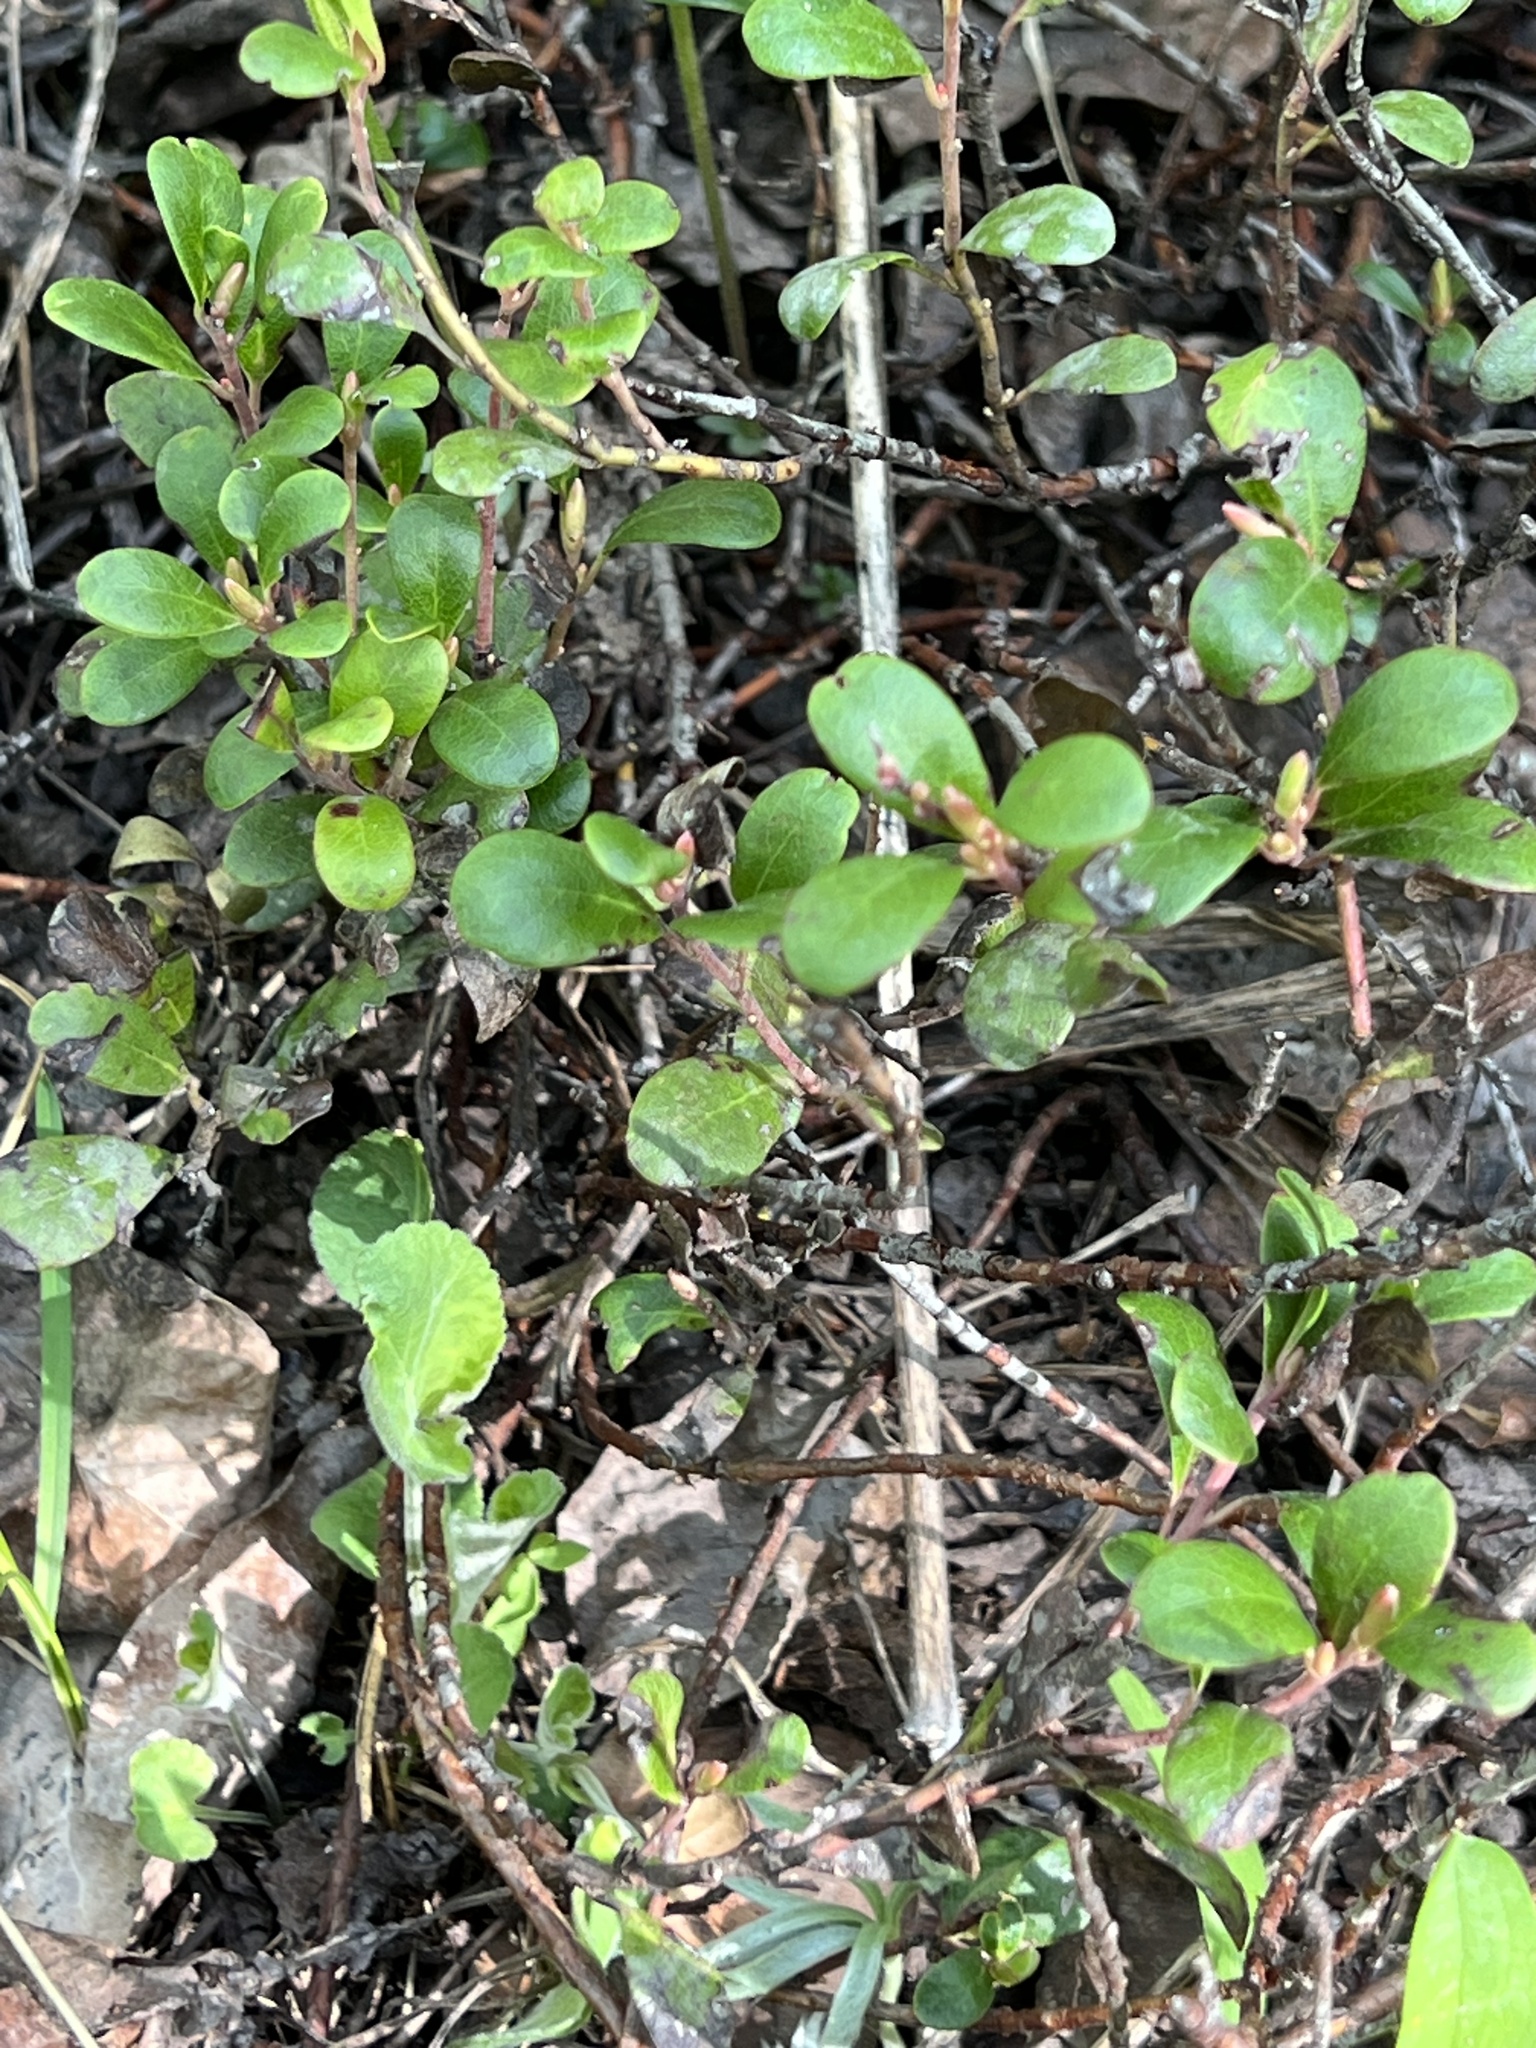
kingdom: Plantae
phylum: Tracheophyta
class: Magnoliopsida
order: Ericales
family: Ericaceae
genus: Arctostaphylos
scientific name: Arctostaphylos uva-ursi
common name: Bearberry
